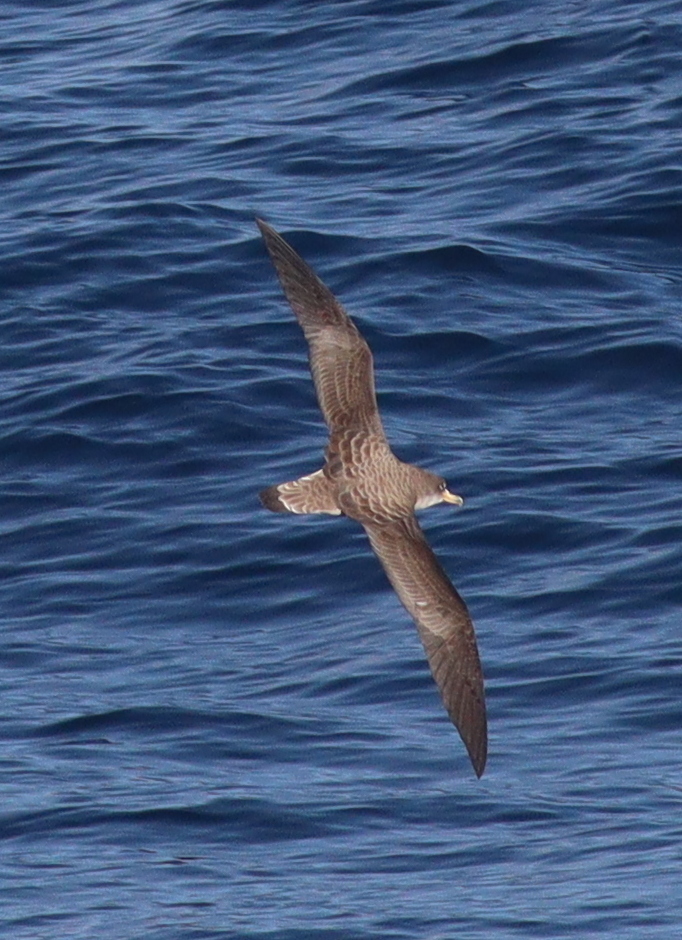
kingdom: Animalia
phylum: Chordata
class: Aves
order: Procellariiformes
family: Procellariidae
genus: Calonectris
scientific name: Calonectris diomedea
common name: Cory's shearwater
